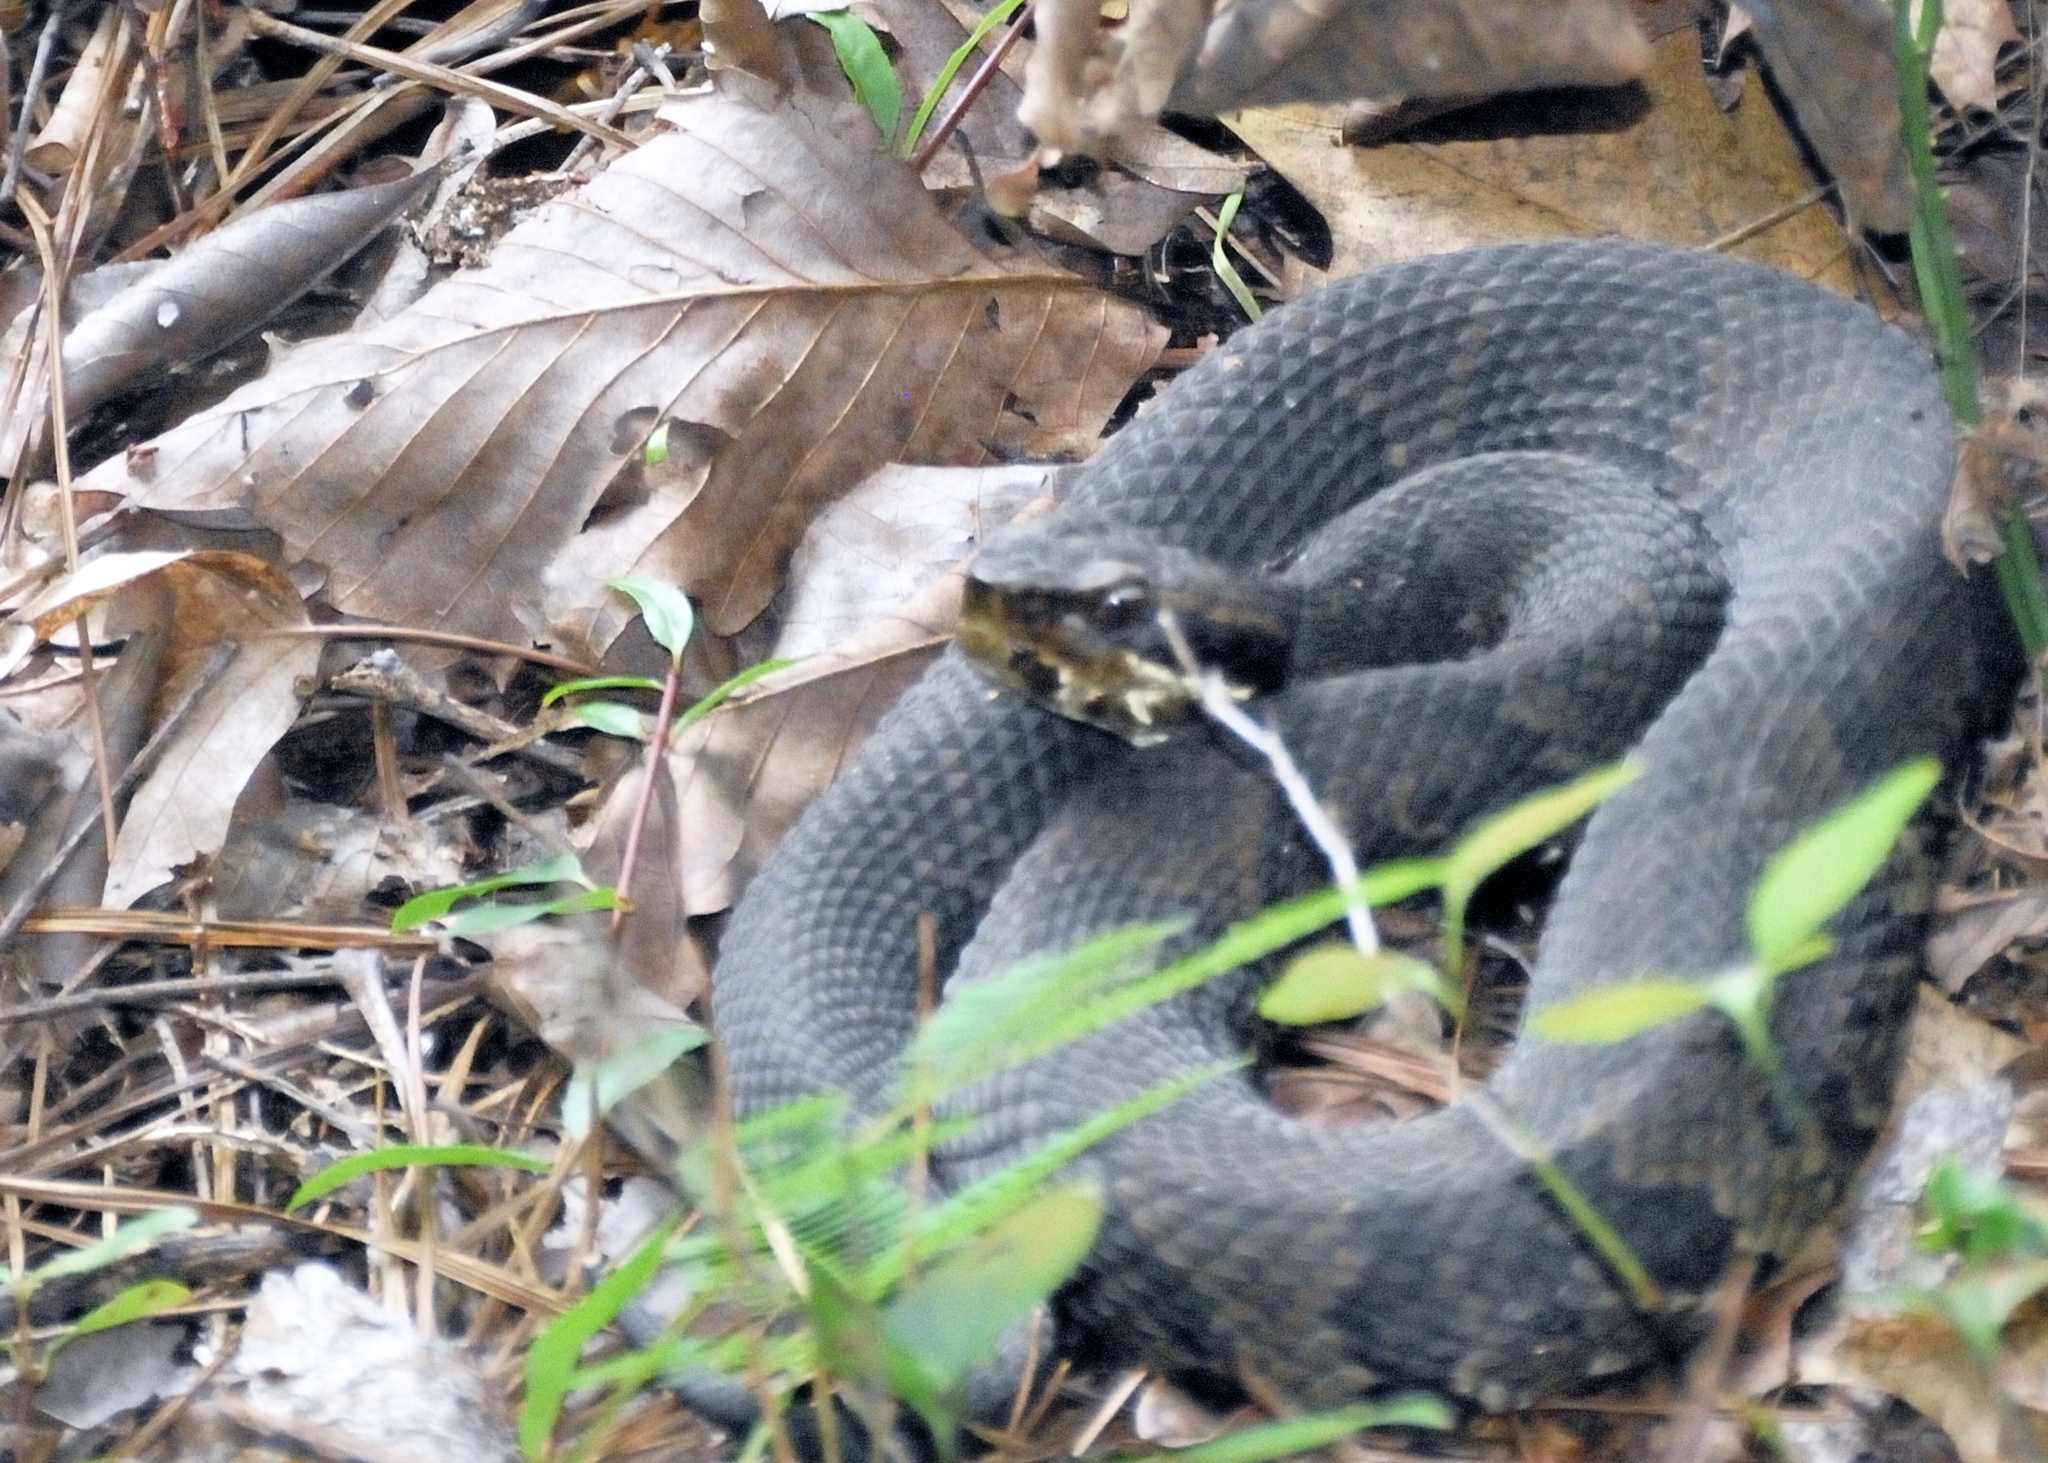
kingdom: Animalia
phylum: Chordata
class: Squamata
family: Viperidae
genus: Agkistrodon
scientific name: Agkistrodon piscivorus
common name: Cottonmouth
